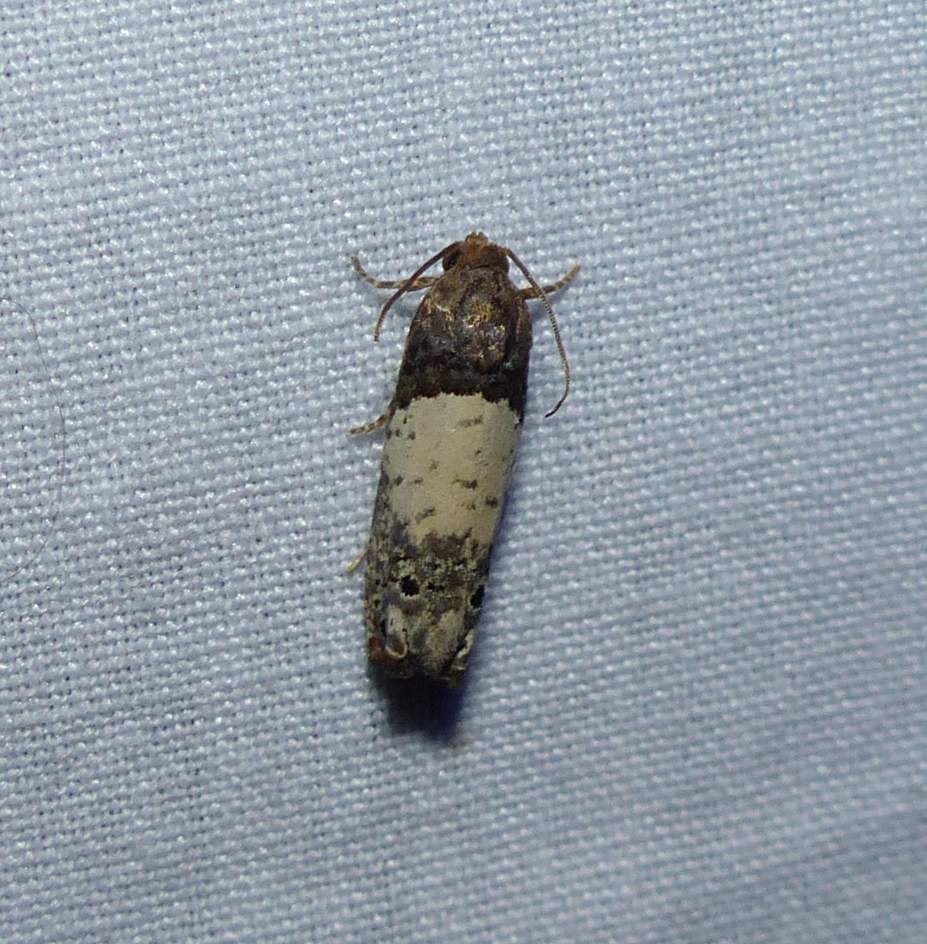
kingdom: Animalia
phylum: Arthropoda
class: Insecta
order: Lepidoptera
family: Tortricidae
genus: Epiblema
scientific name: Epiblema scudderiana
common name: Goldenrod gall moth
